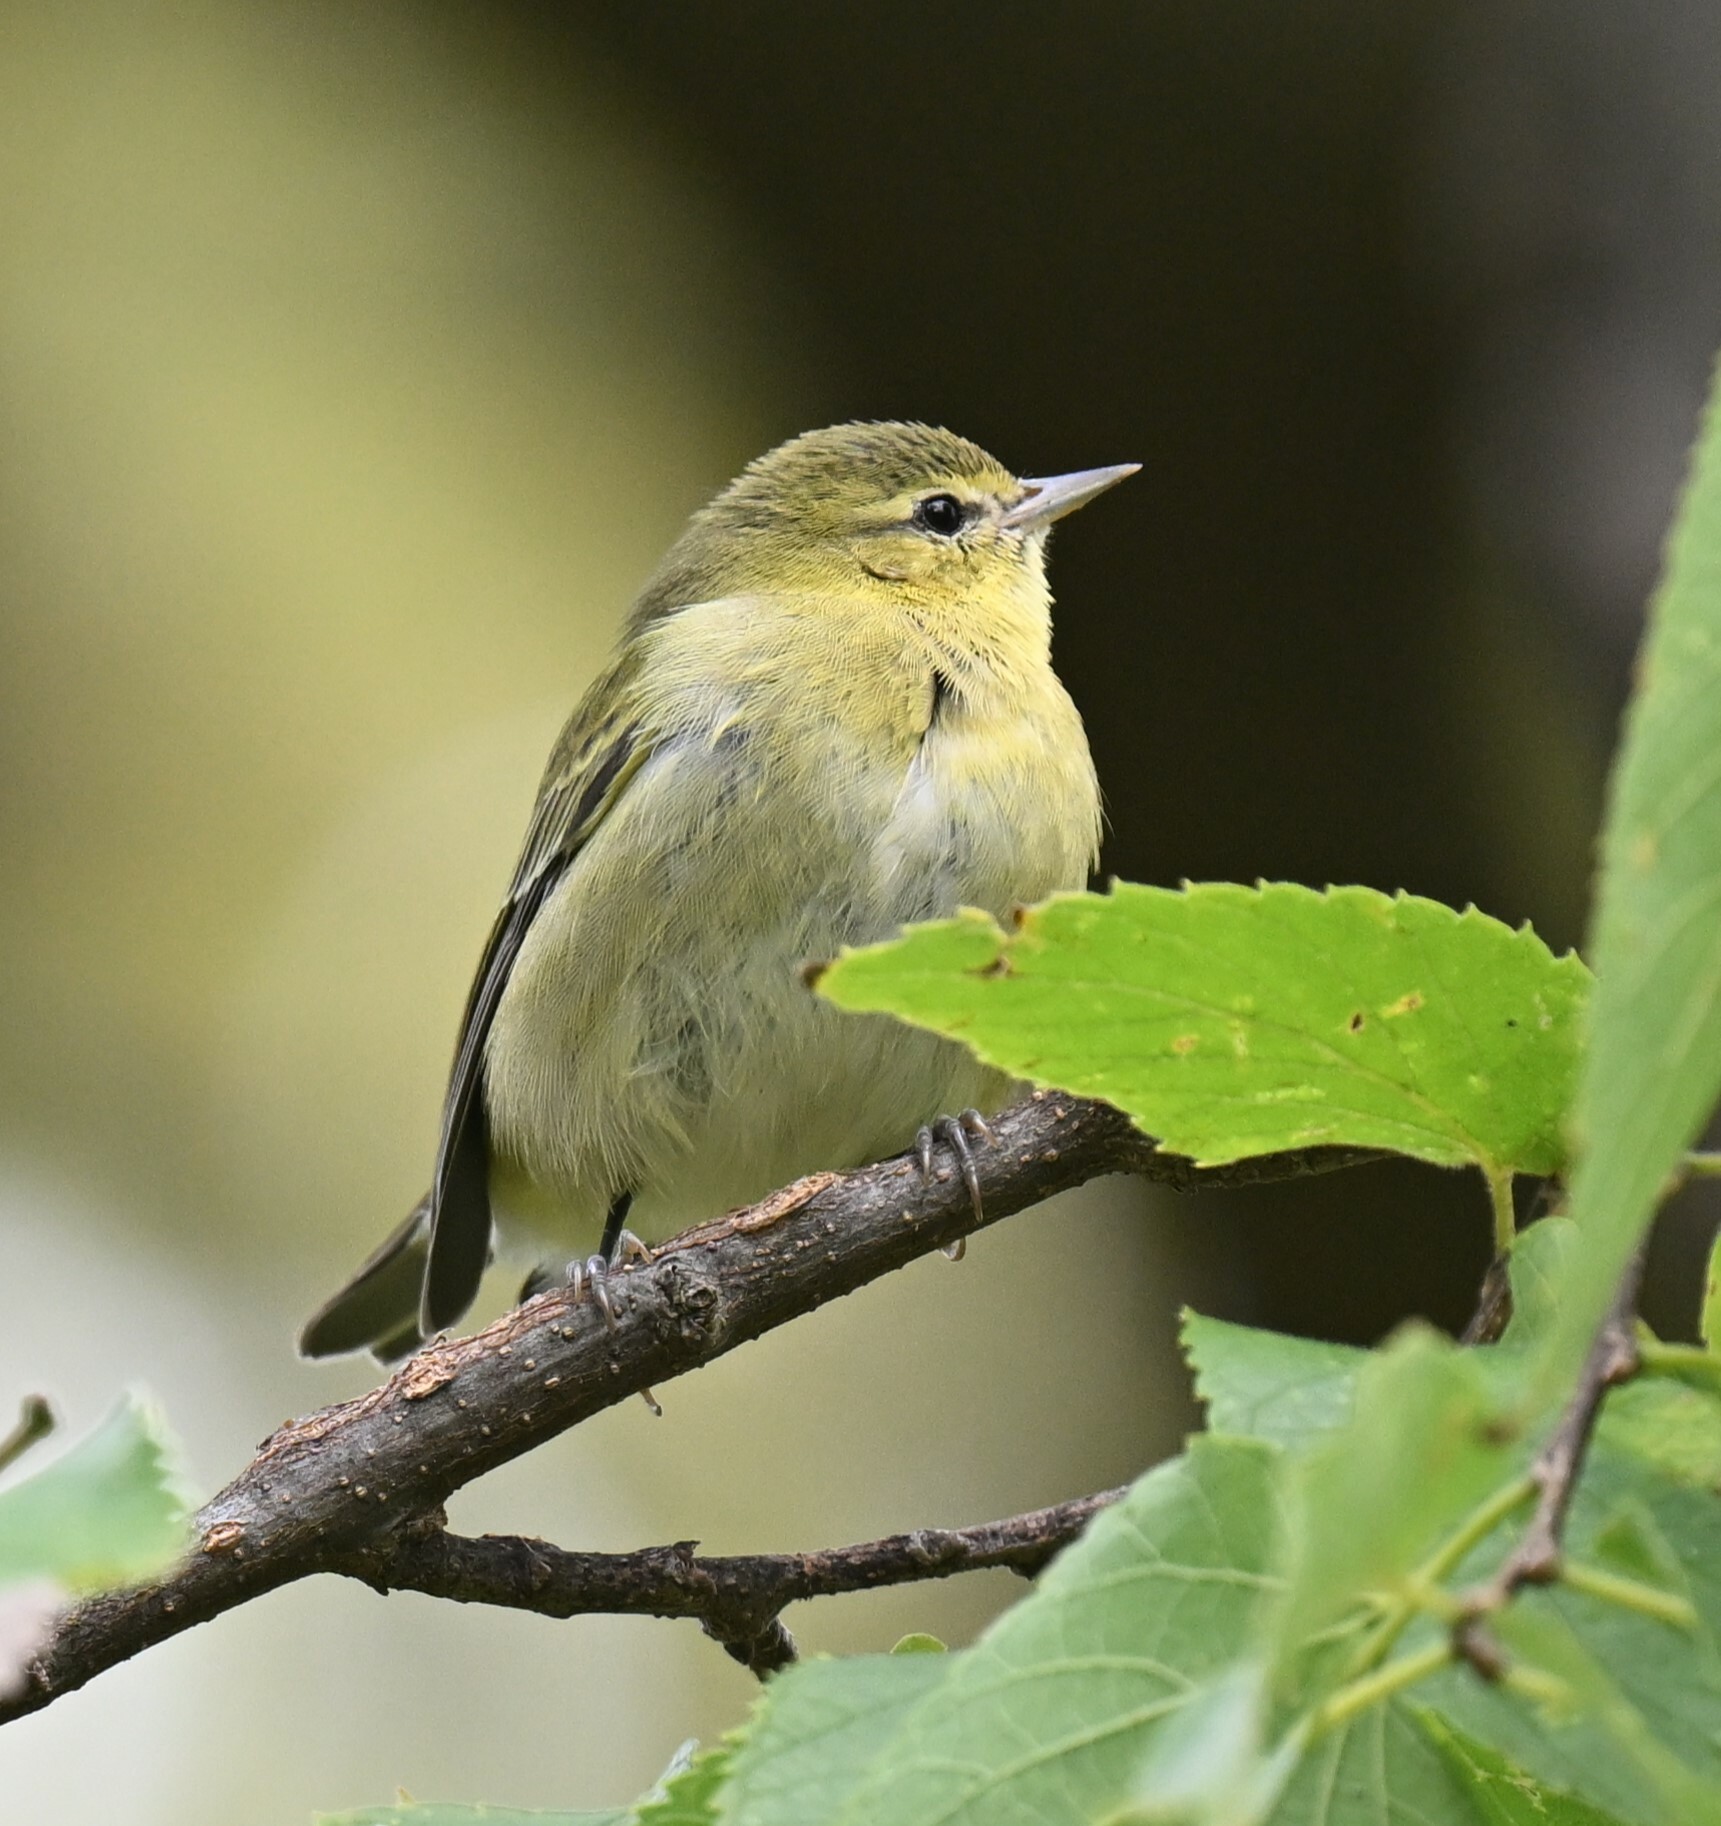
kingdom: Animalia
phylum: Chordata
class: Aves
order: Passeriformes
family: Parulidae
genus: Leiothlypis
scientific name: Leiothlypis peregrina
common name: Tennessee warbler
